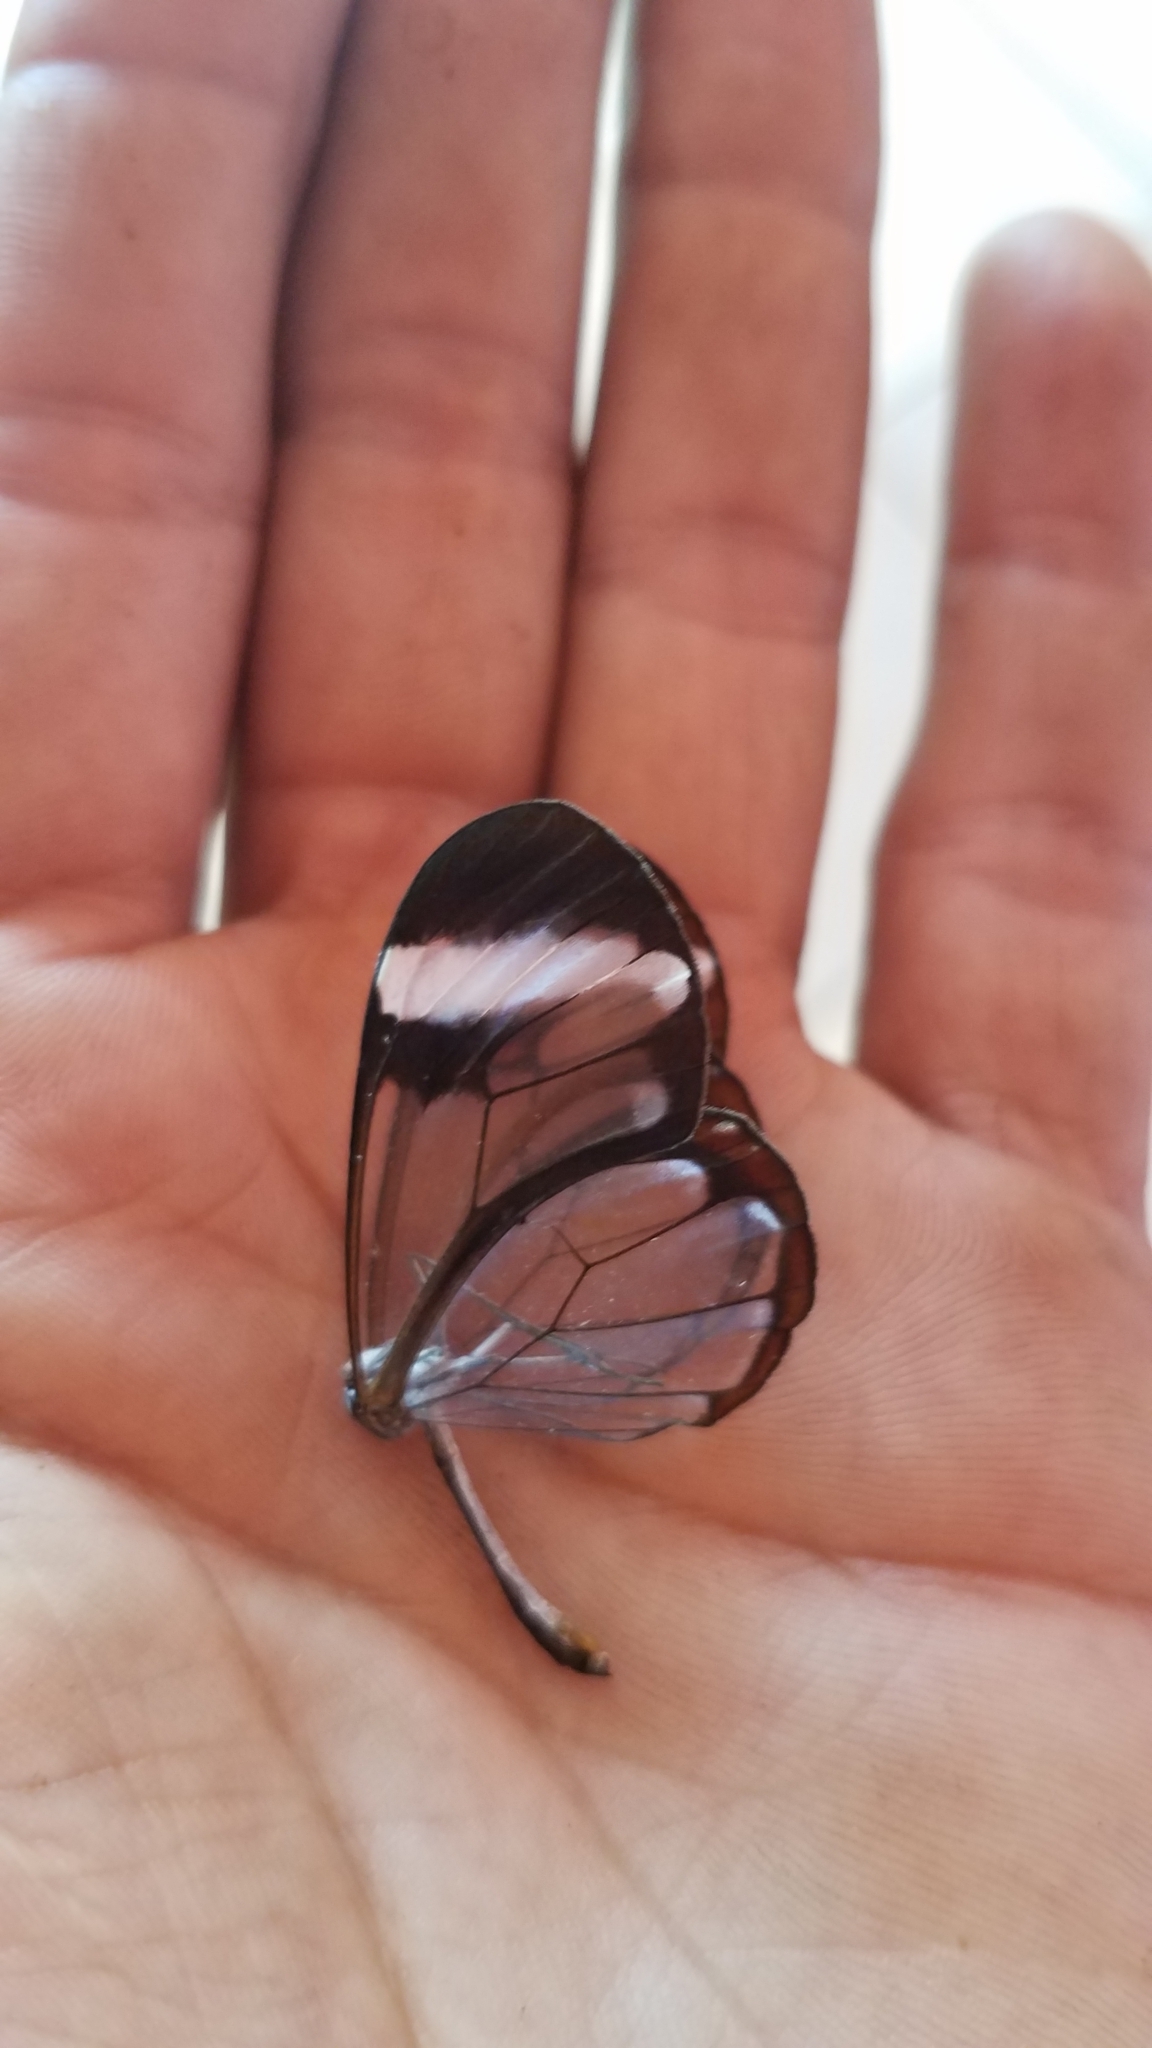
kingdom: Animalia
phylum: Arthropoda
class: Insecta
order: Lepidoptera
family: Nymphalidae
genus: Greta
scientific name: Greta morgane
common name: Thick-tipped greta
